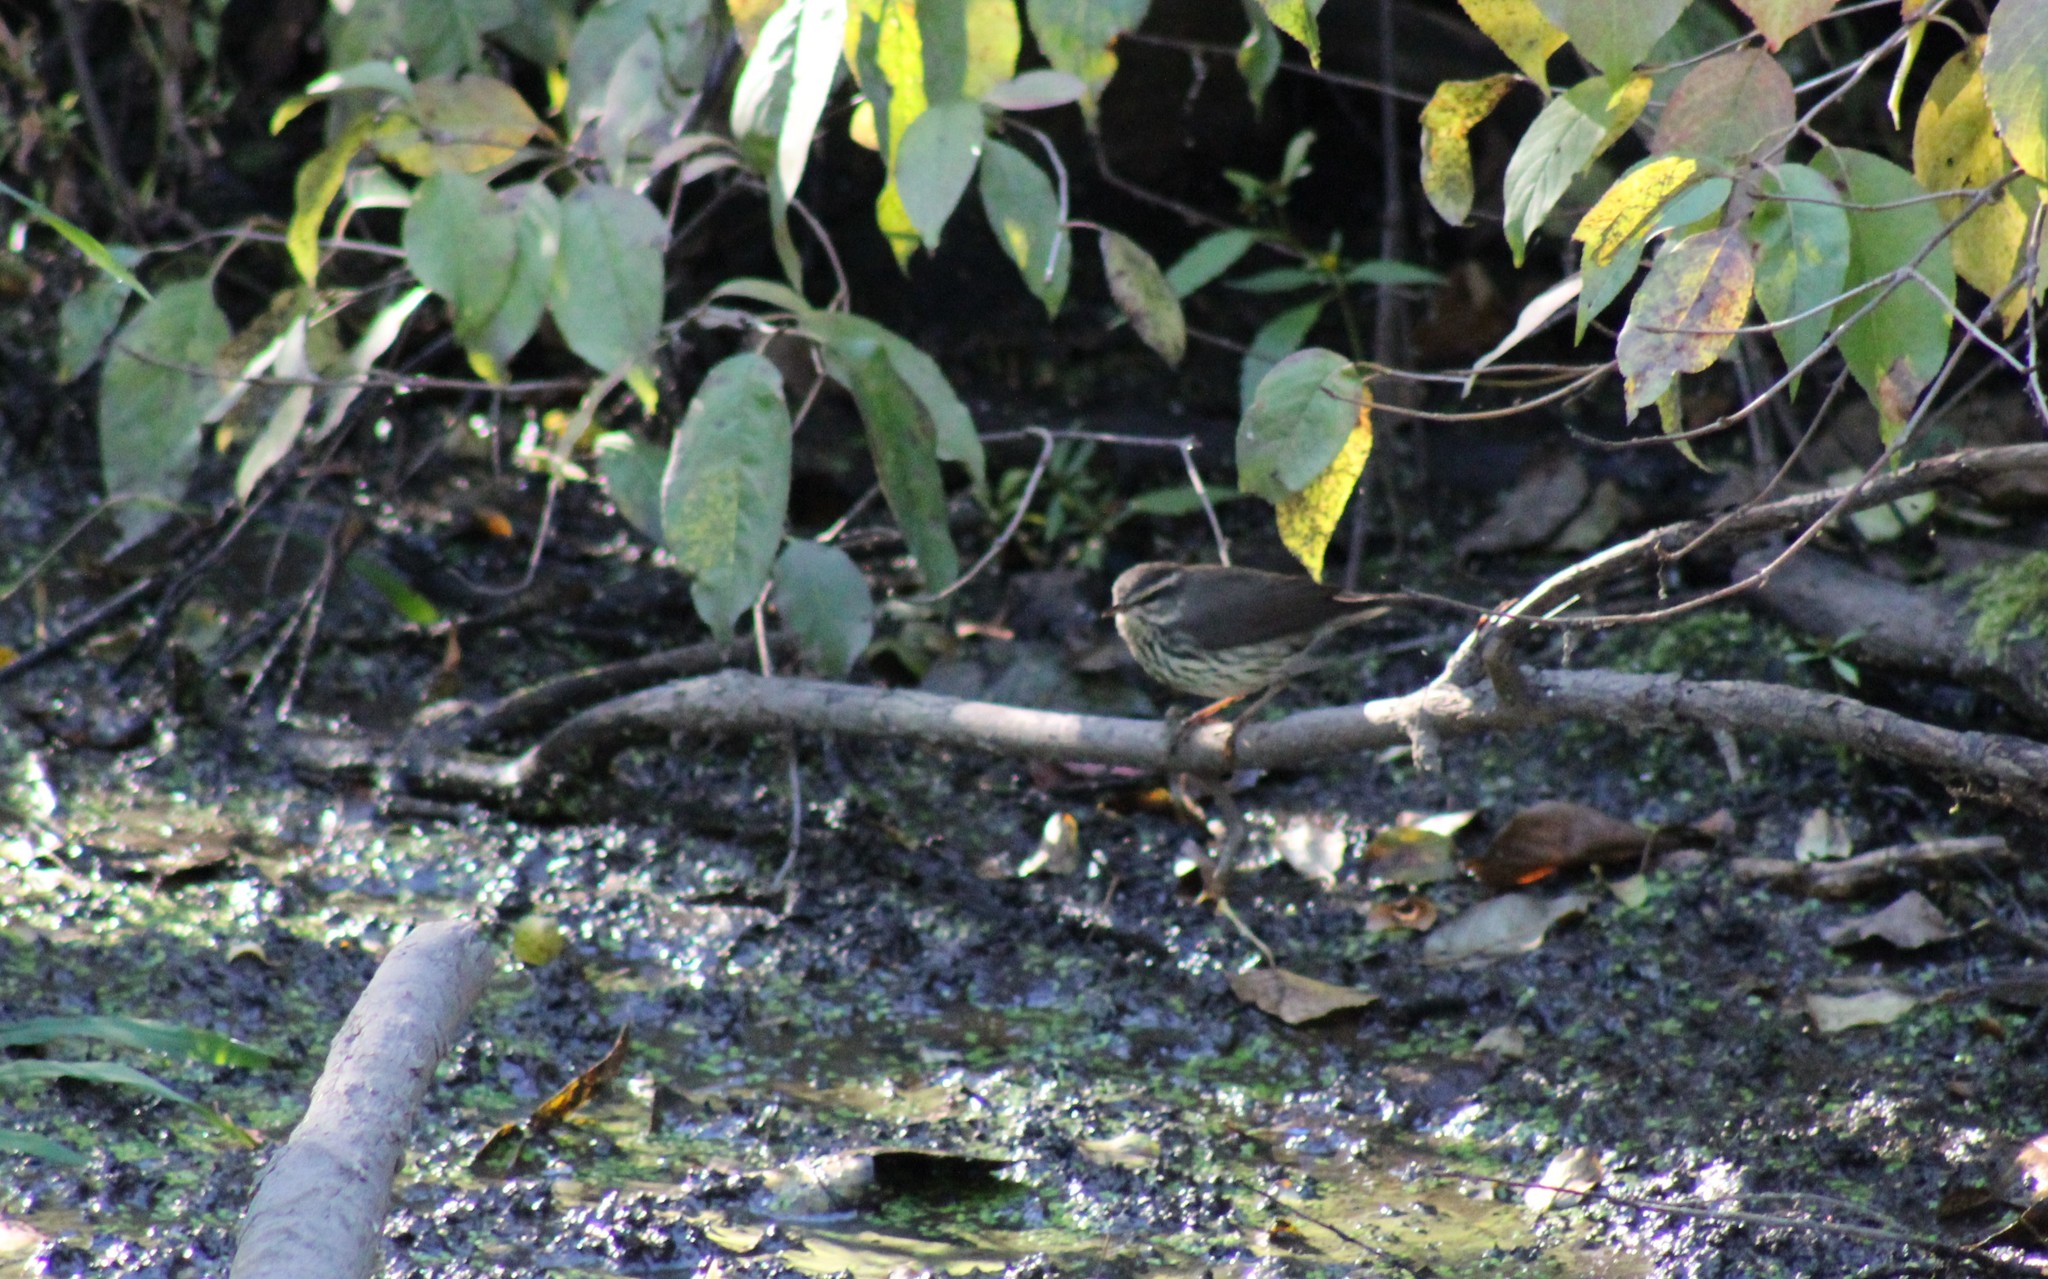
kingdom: Animalia
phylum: Chordata
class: Aves
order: Passeriformes
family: Parulidae
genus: Parkesia
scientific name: Parkesia noveboracensis
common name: Northern waterthrush
